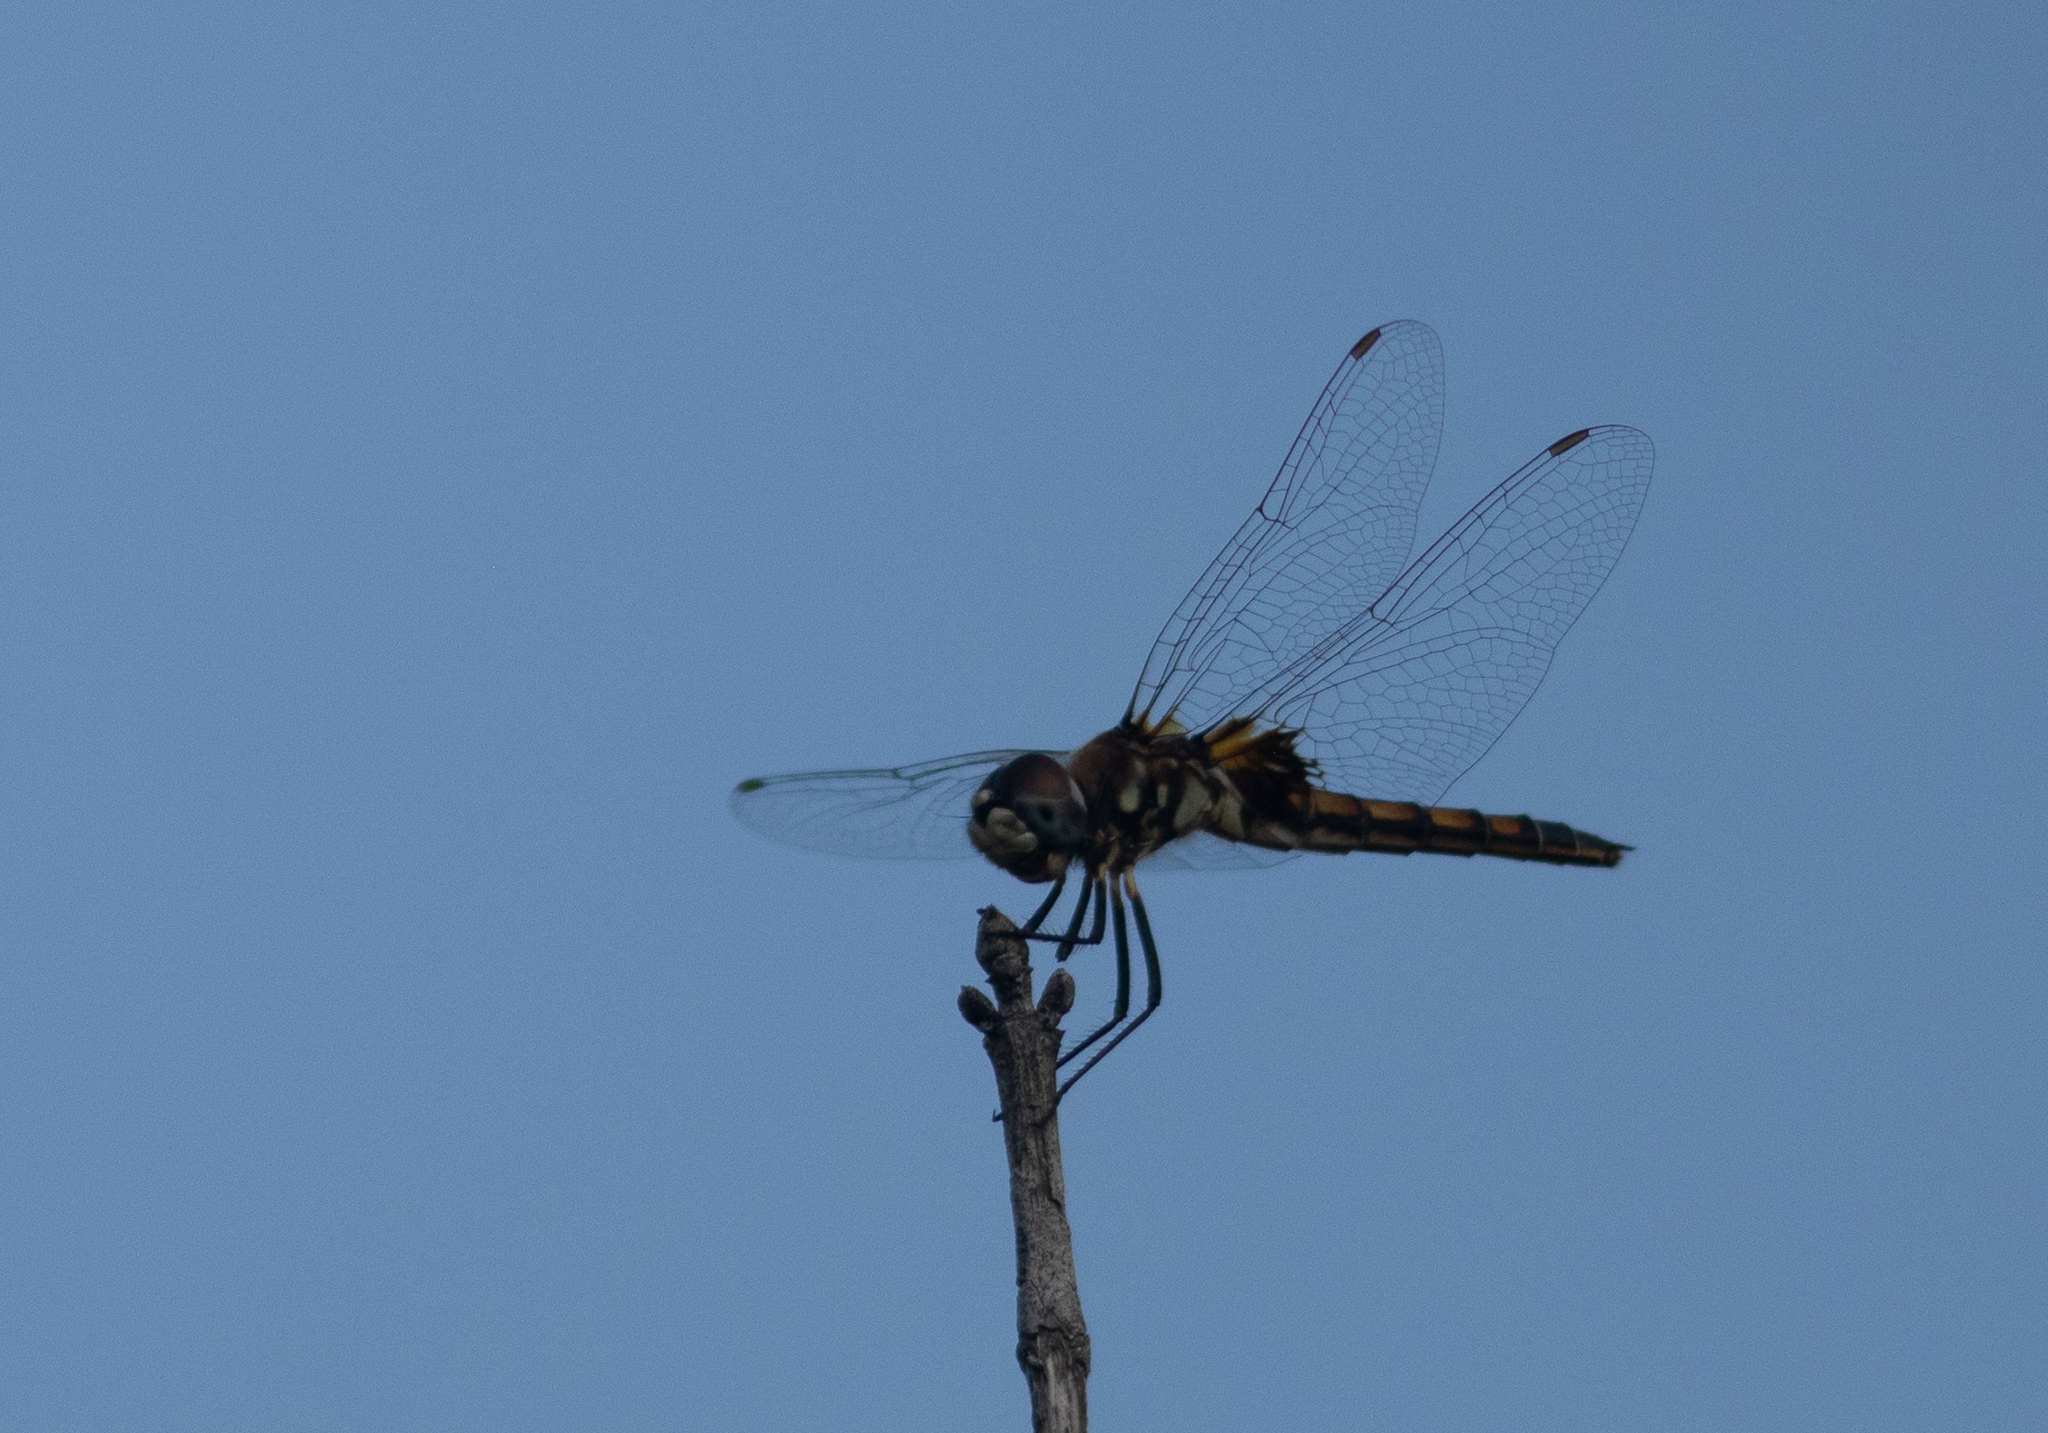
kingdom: Animalia
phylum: Arthropoda
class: Insecta
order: Odonata
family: Libellulidae
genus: Macrodiplax
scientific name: Macrodiplax balteata
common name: Marl pennant
